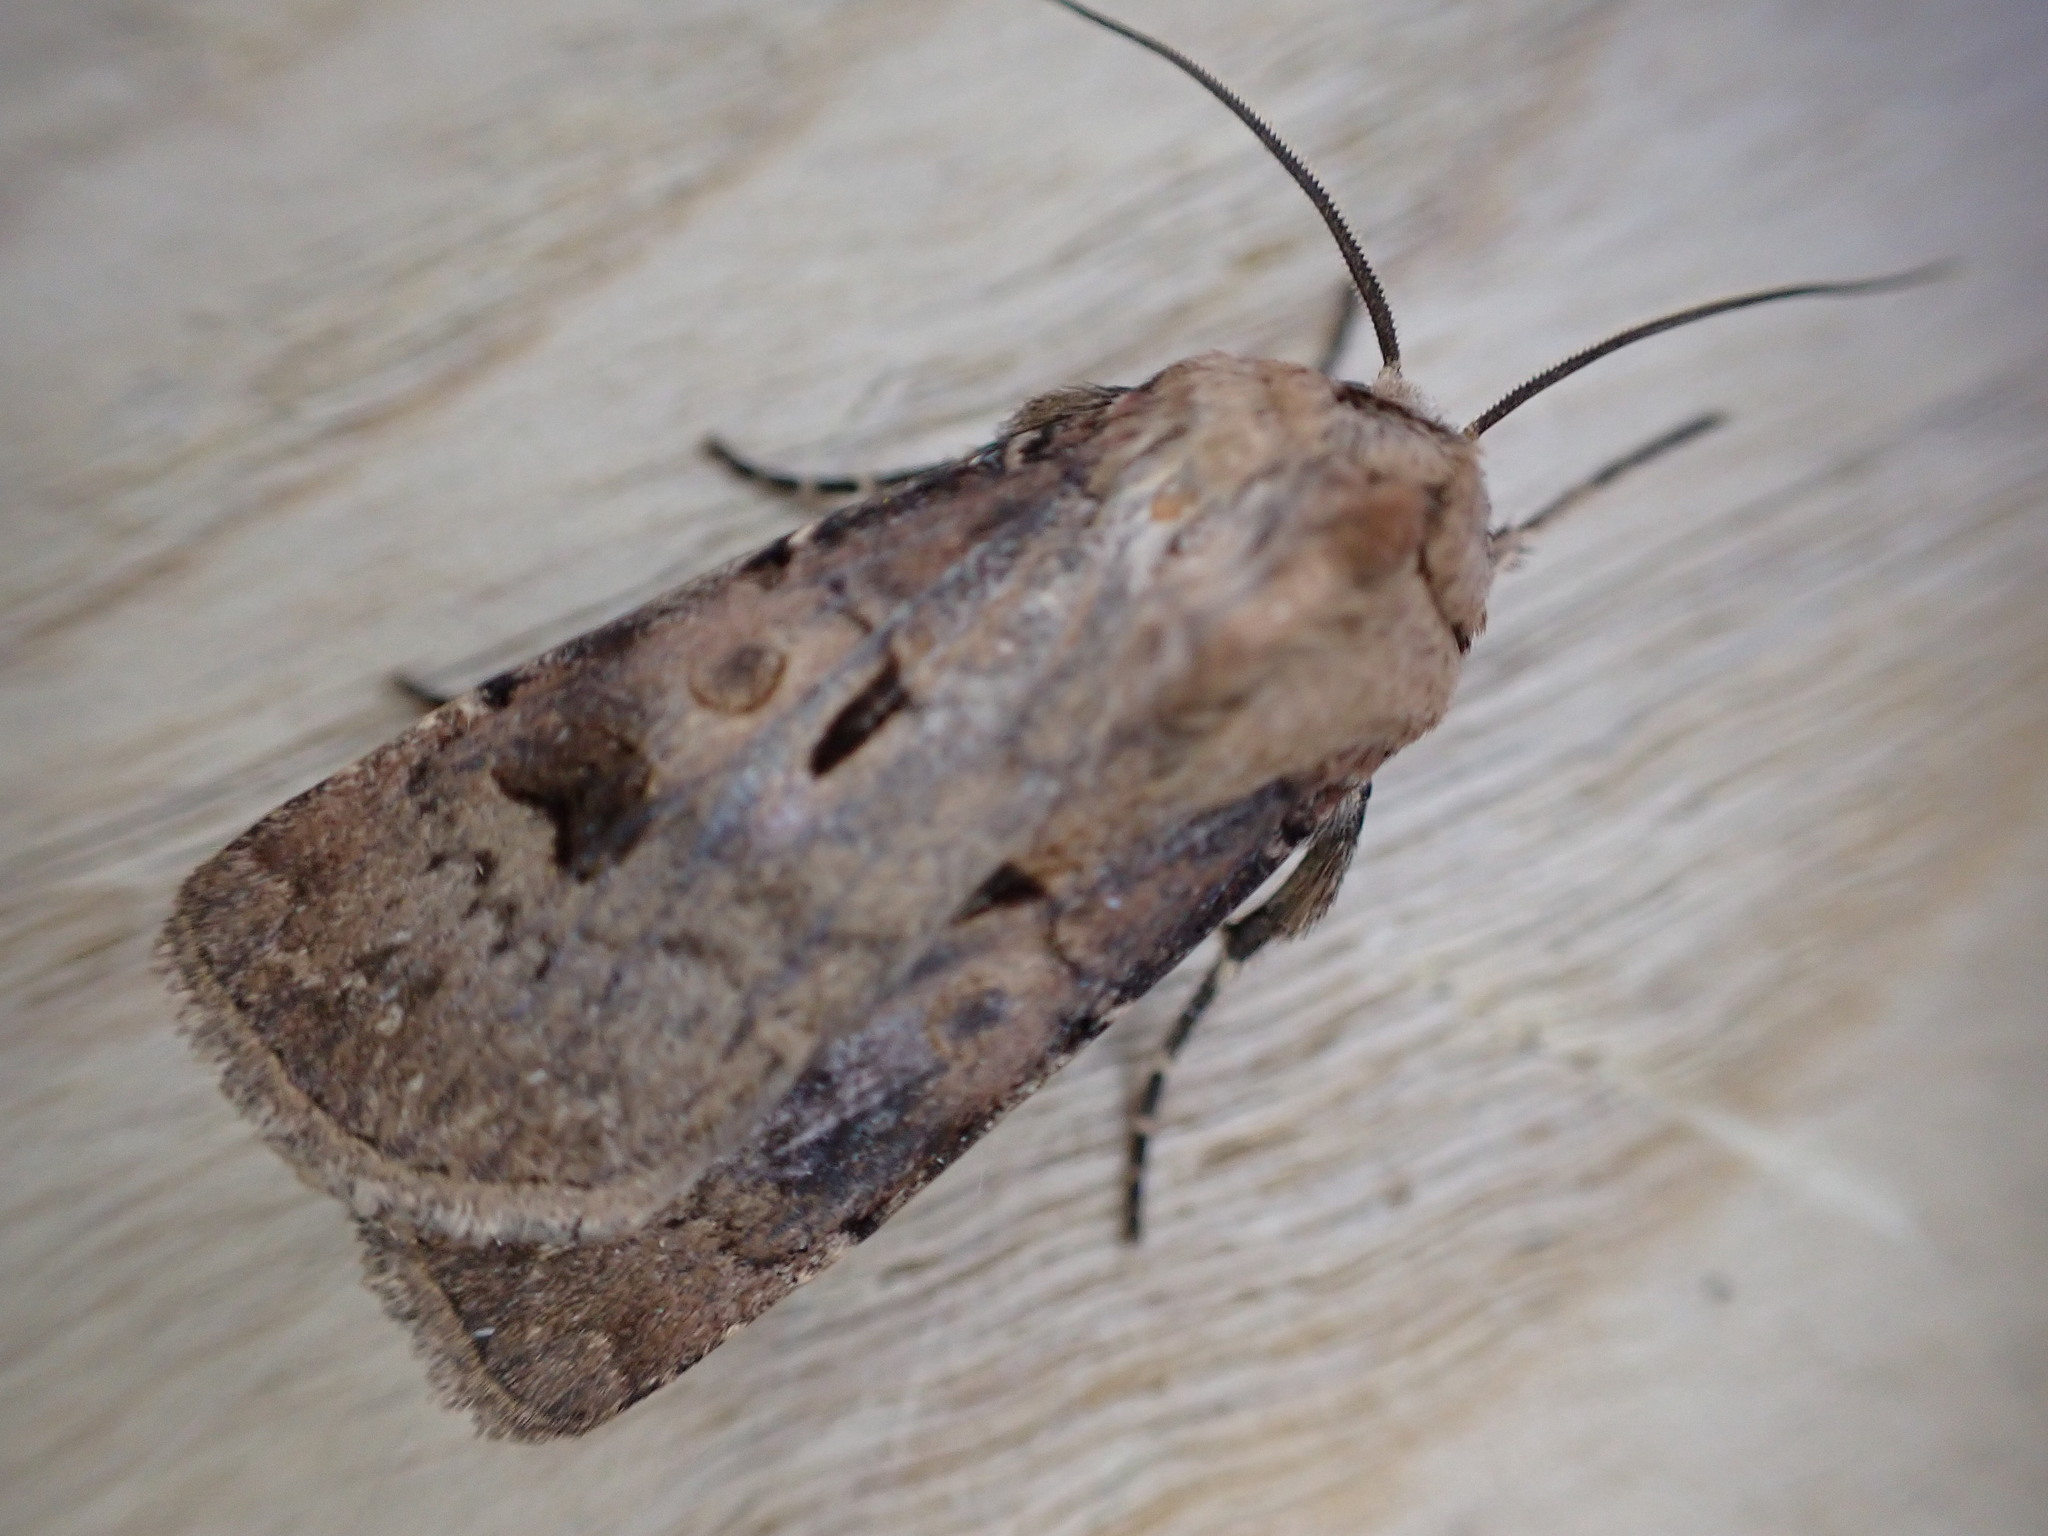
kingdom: Animalia
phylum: Arthropoda
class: Insecta
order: Lepidoptera
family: Noctuidae
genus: Agrotis
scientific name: Agrotis exclamationis
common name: Heart and dart
